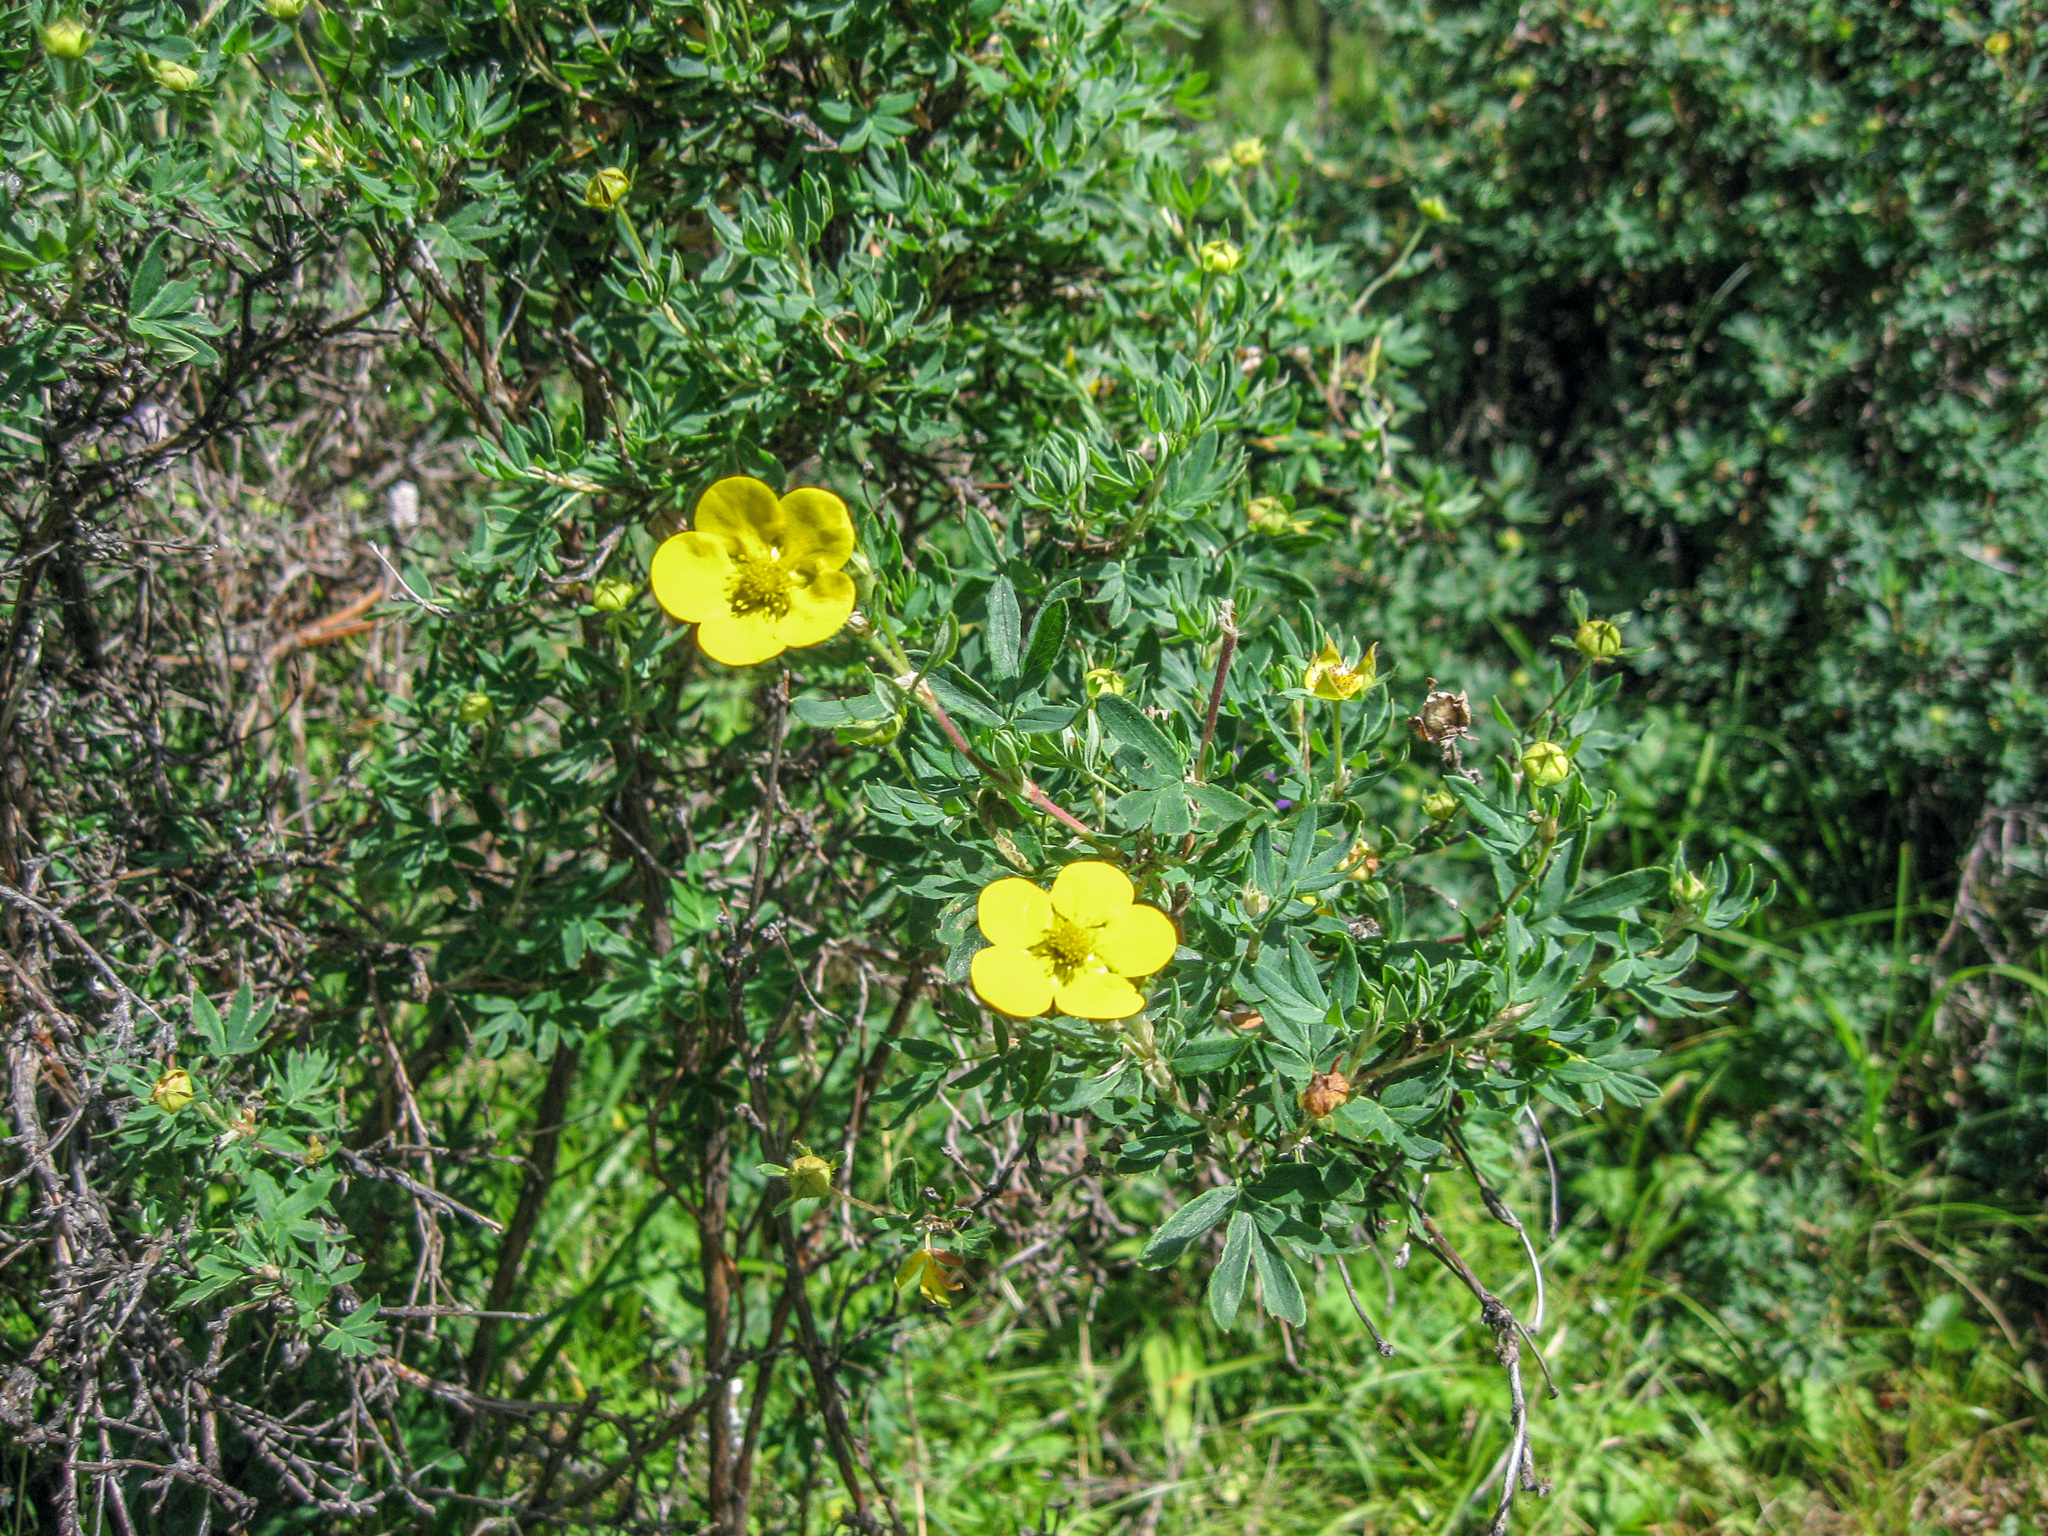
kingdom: Plantae
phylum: Tracheophyta
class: Magnoliopsida
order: Rosales
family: Rosaceae
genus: Dasiphora
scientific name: Dasiphora fruticosa
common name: Shrubby cinquefoil
